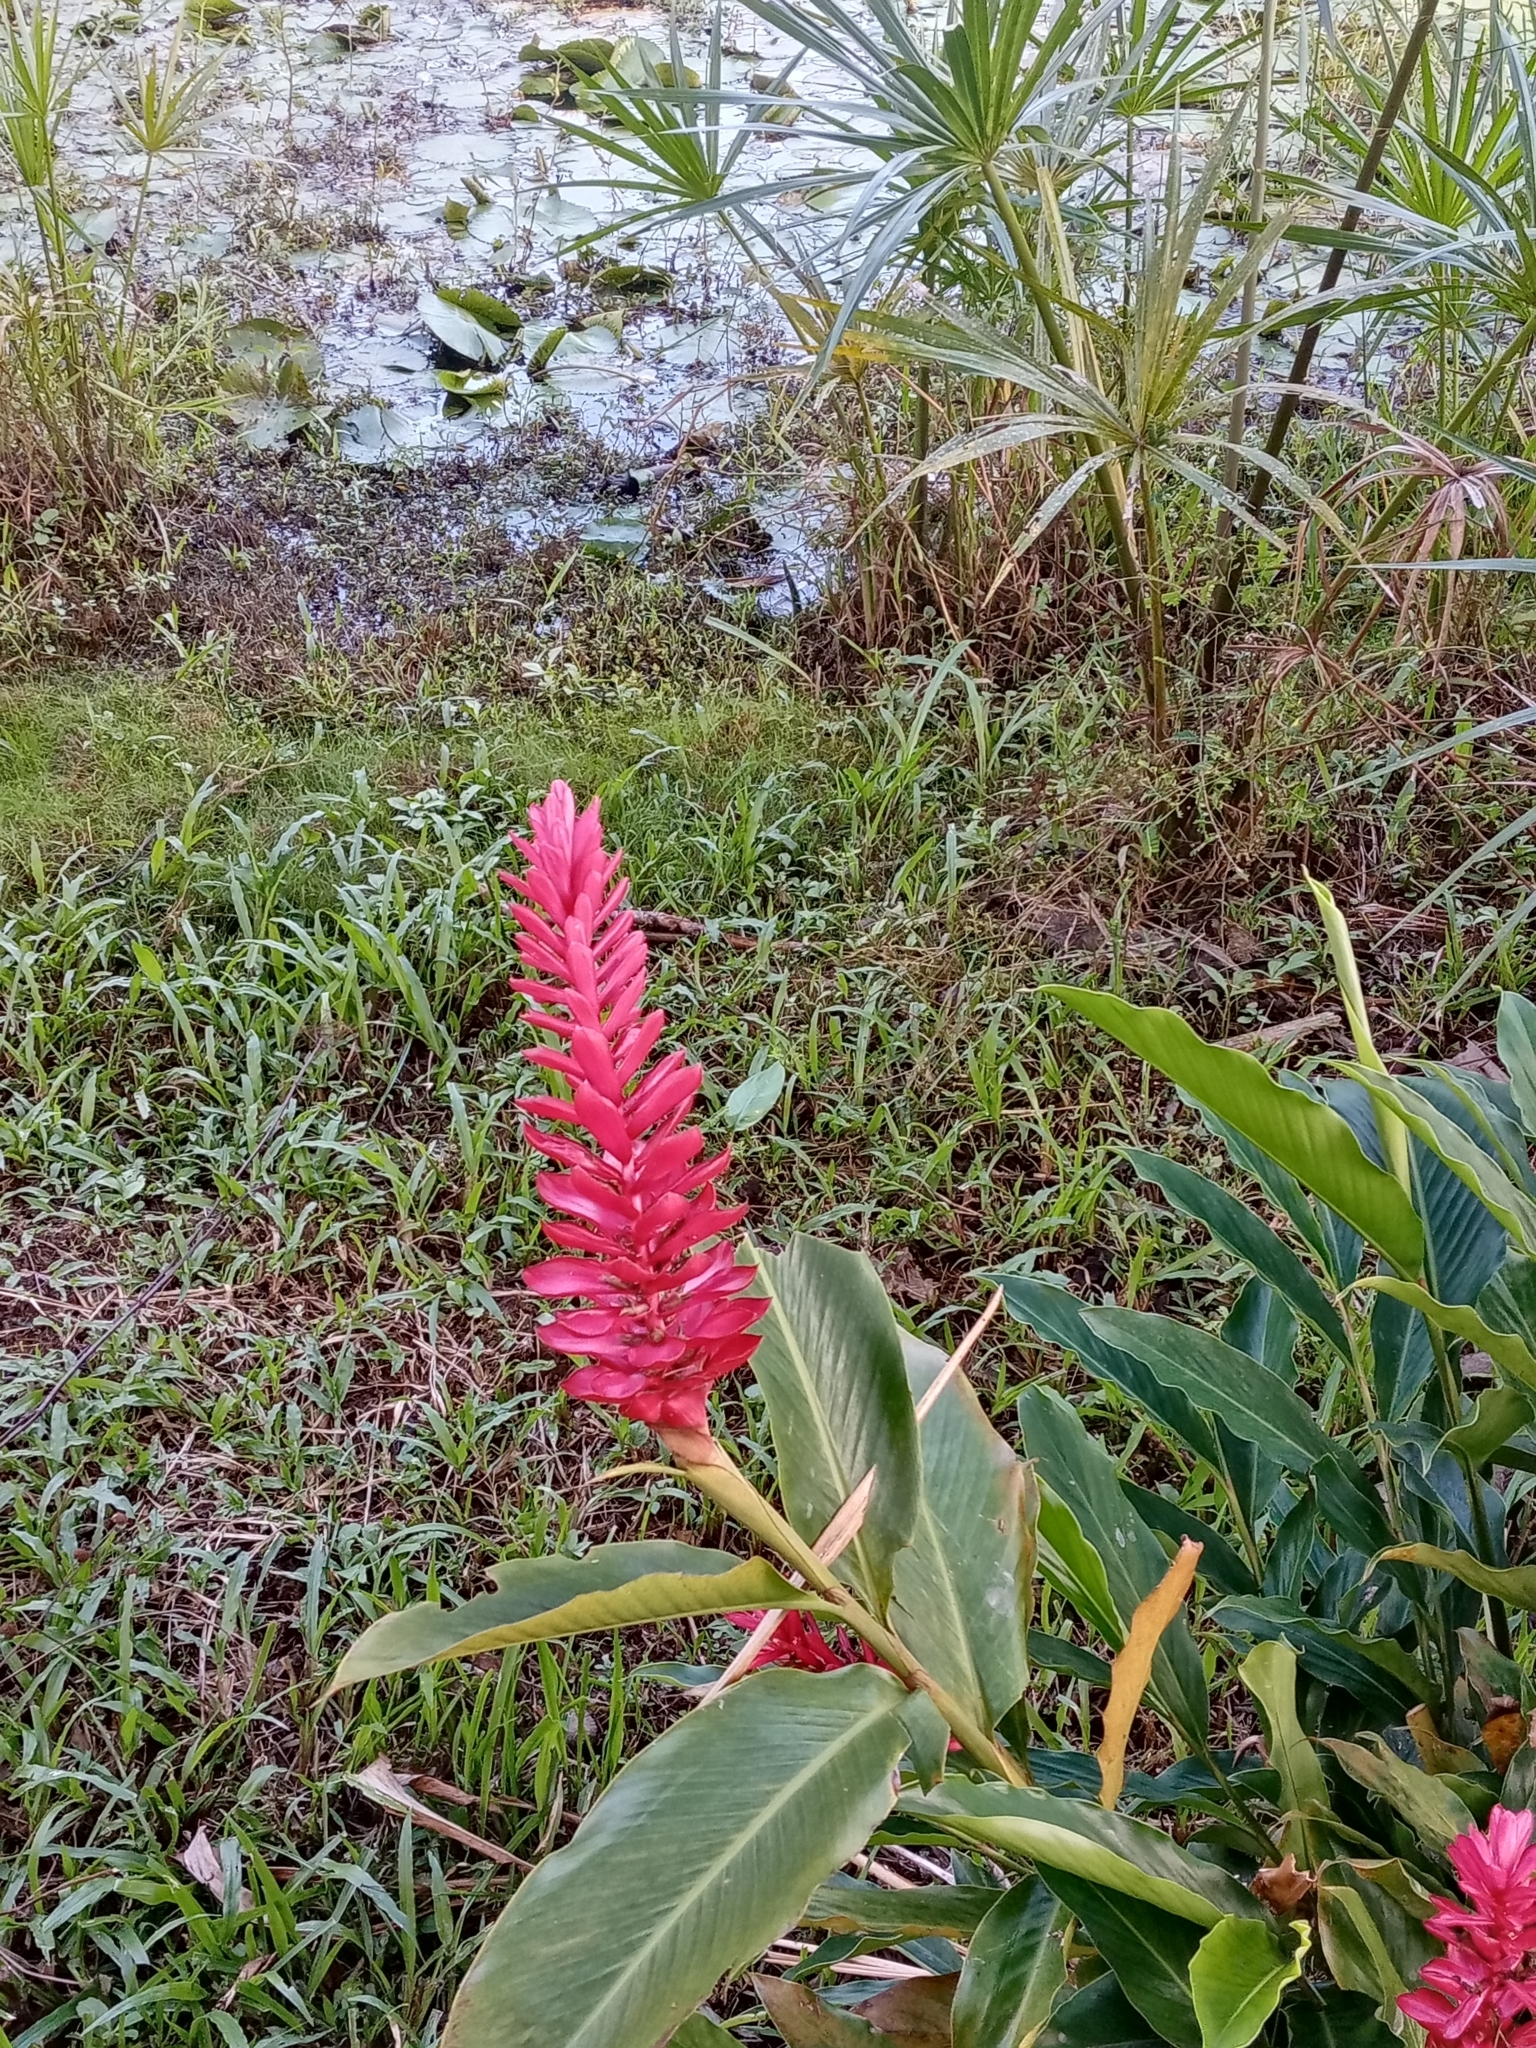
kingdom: Plantae
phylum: Tracheophyta
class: Liliopsida
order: Zingiberales
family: Zingiberaceae
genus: Alpinia
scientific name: Alpinia purpurata
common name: Red ginger
